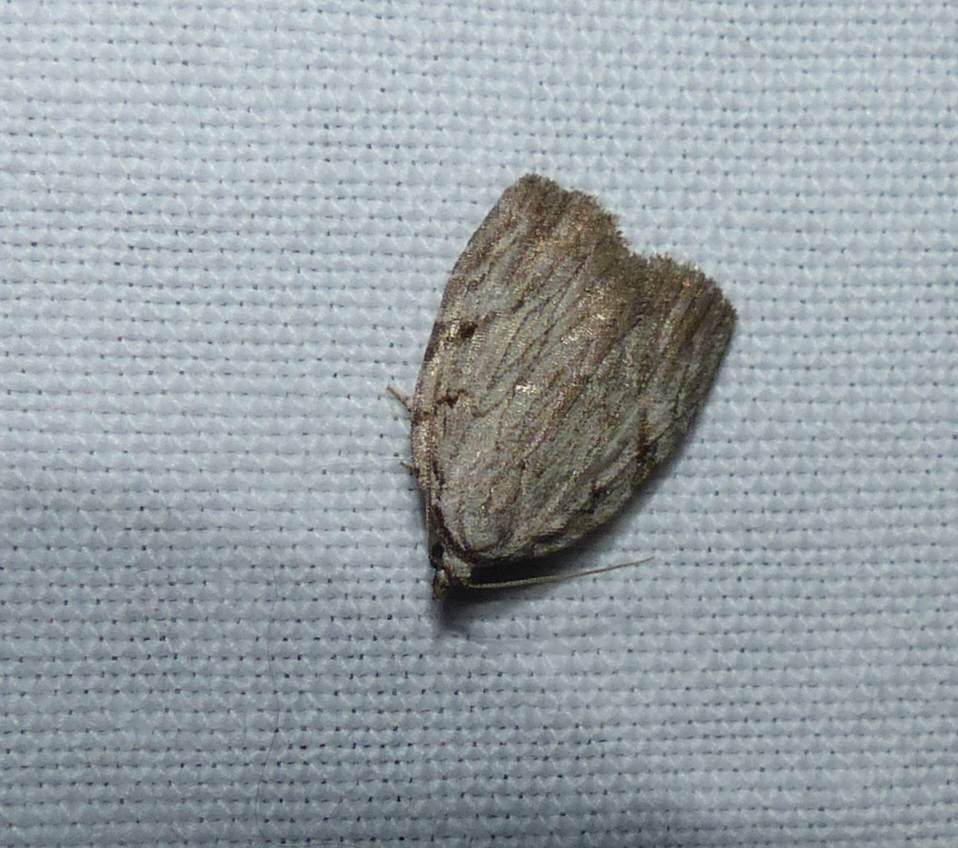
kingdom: Animalia
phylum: Arthropoda
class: Insecta
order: Lepidoptera
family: Noctuidae
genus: Balsa
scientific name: Balsa tristrigella
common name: Three-lined balsa moth
